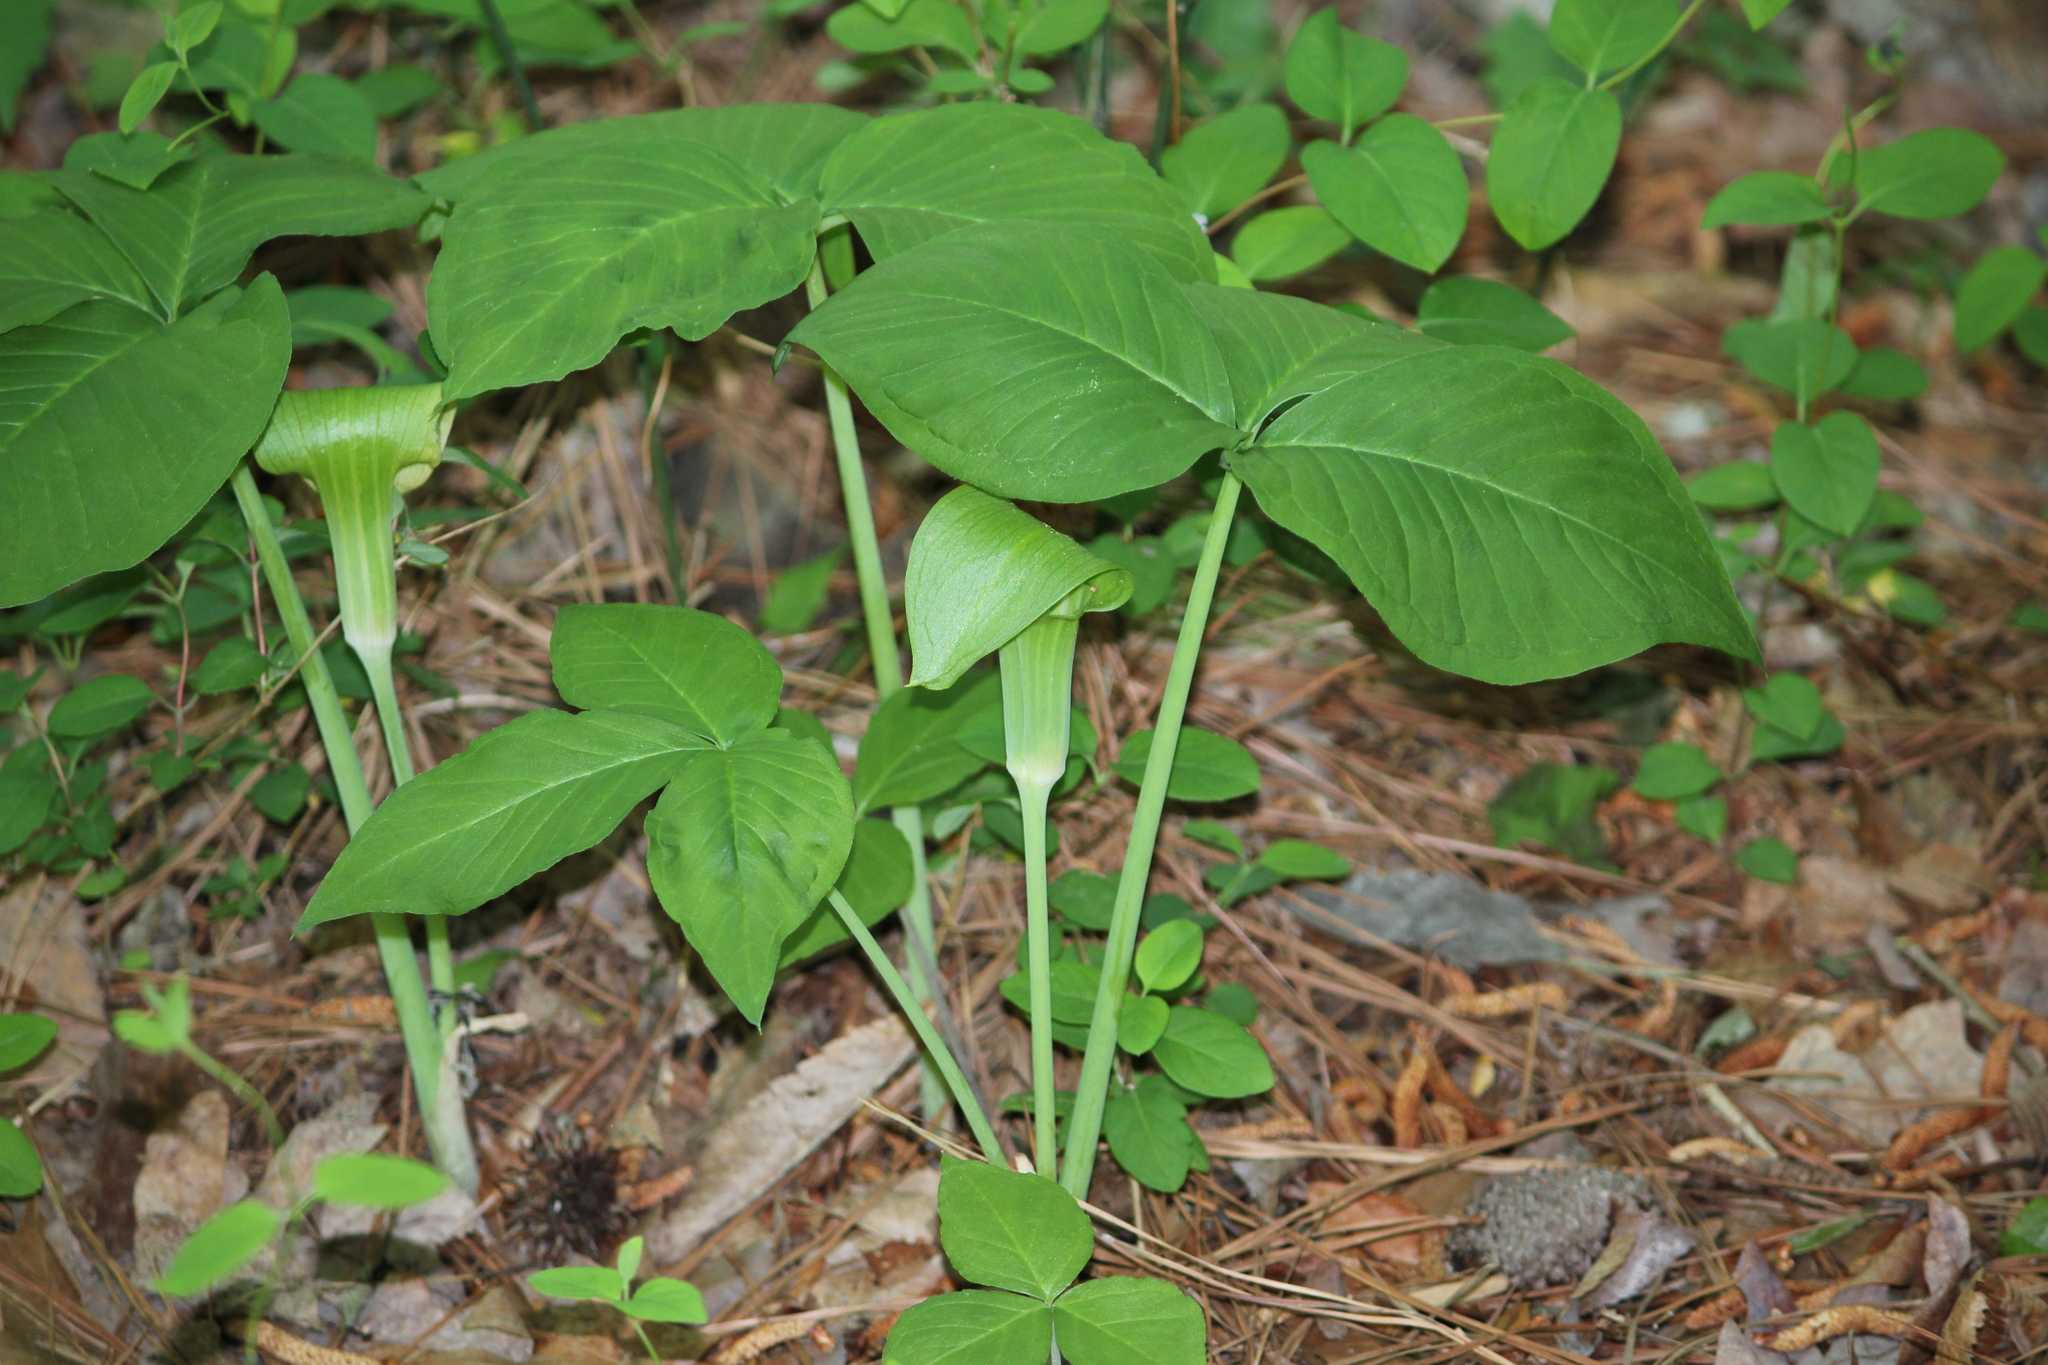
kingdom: Plantae
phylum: Tracheophyta
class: Liliopsida
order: Alismatales
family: Araceae
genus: Arisaema
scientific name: Arisaema triphyllum
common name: Jack-in-the-pulpit
